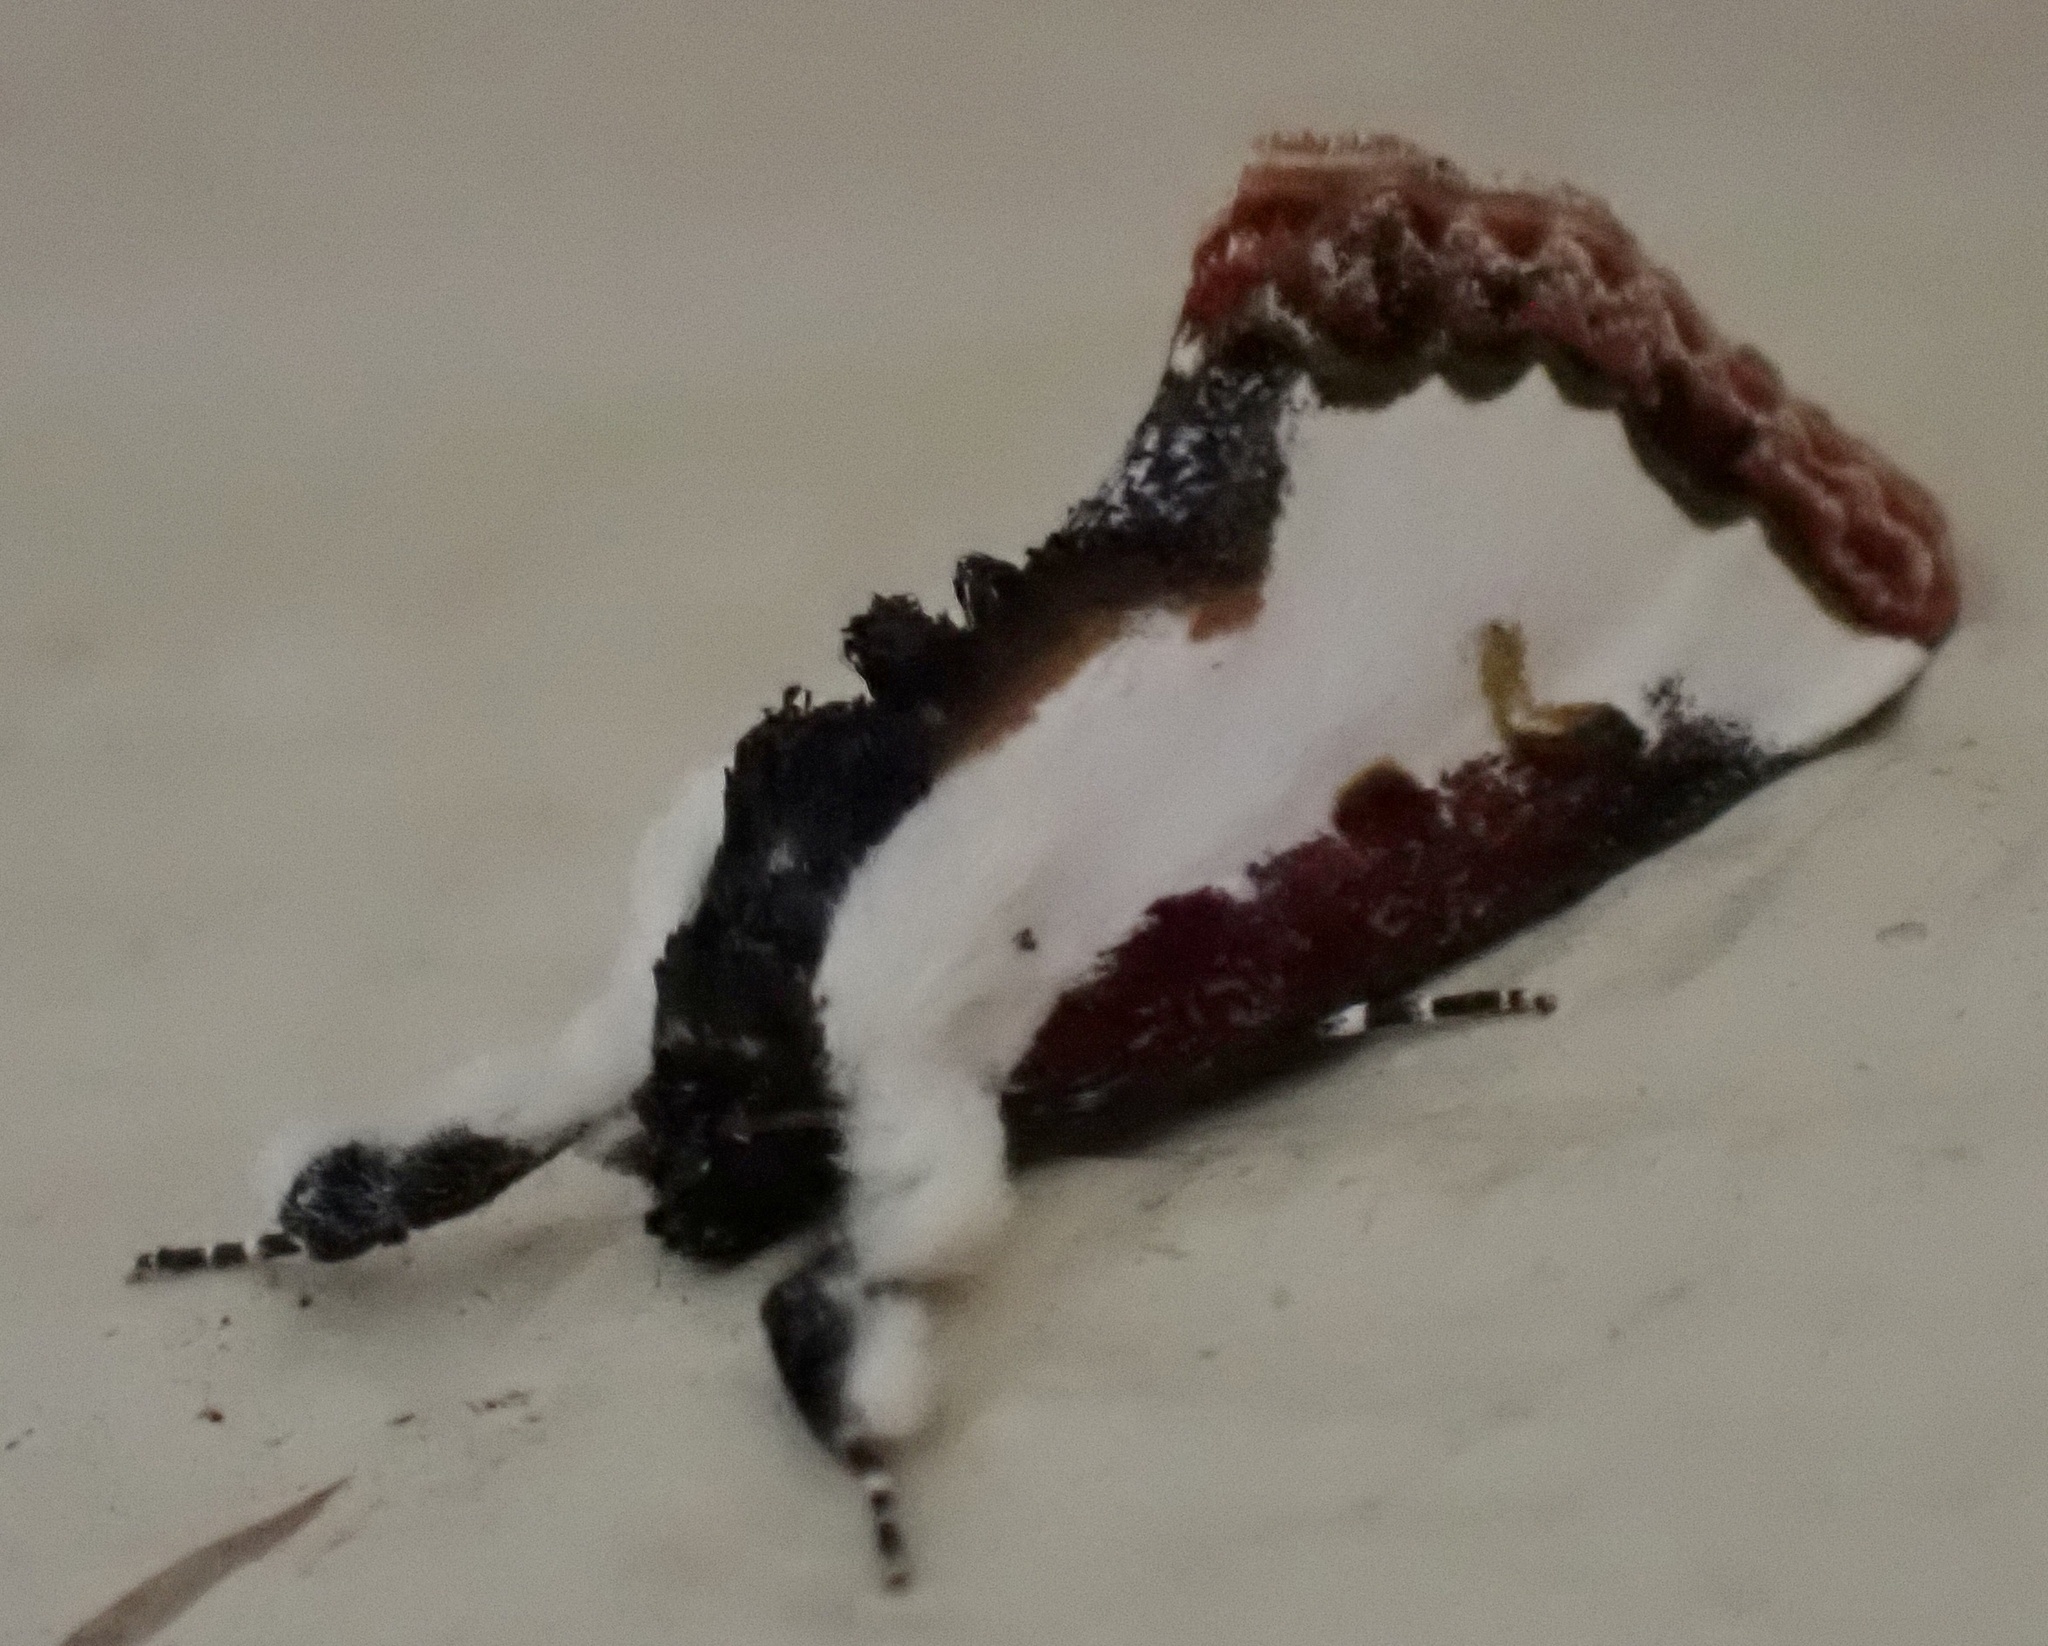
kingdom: Animalia
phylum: Arthropoda
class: Insecta
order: Lepidoptera
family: Noctuidae
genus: Eudryas
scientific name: Eudryas unio
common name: Pearly wood-nymph
